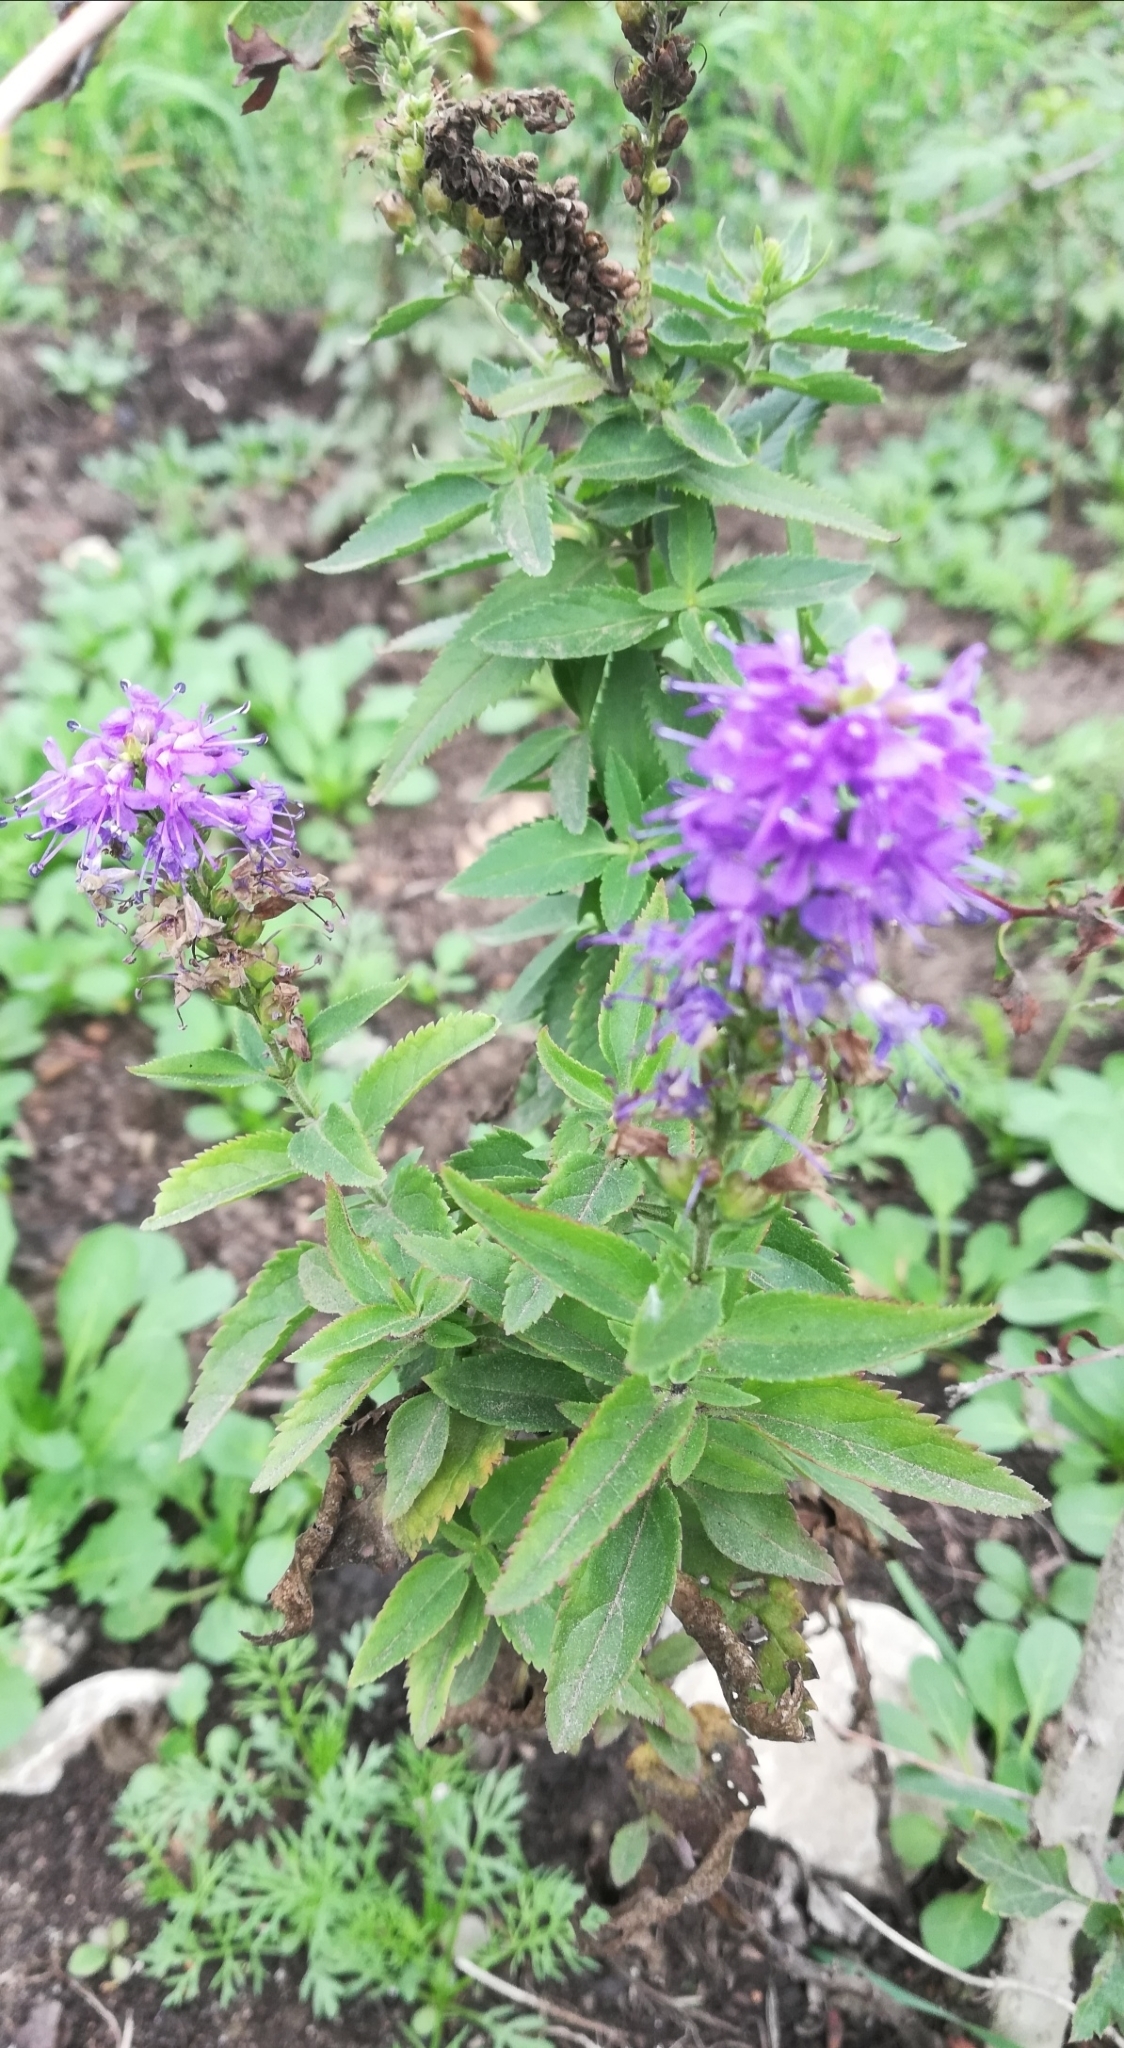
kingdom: Plantae
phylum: Tracheophyta
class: Magnoliopsida
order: Lamiales
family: Plantaginaceae
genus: Veronica
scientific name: Veronica longifolia
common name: Garden speedwell
